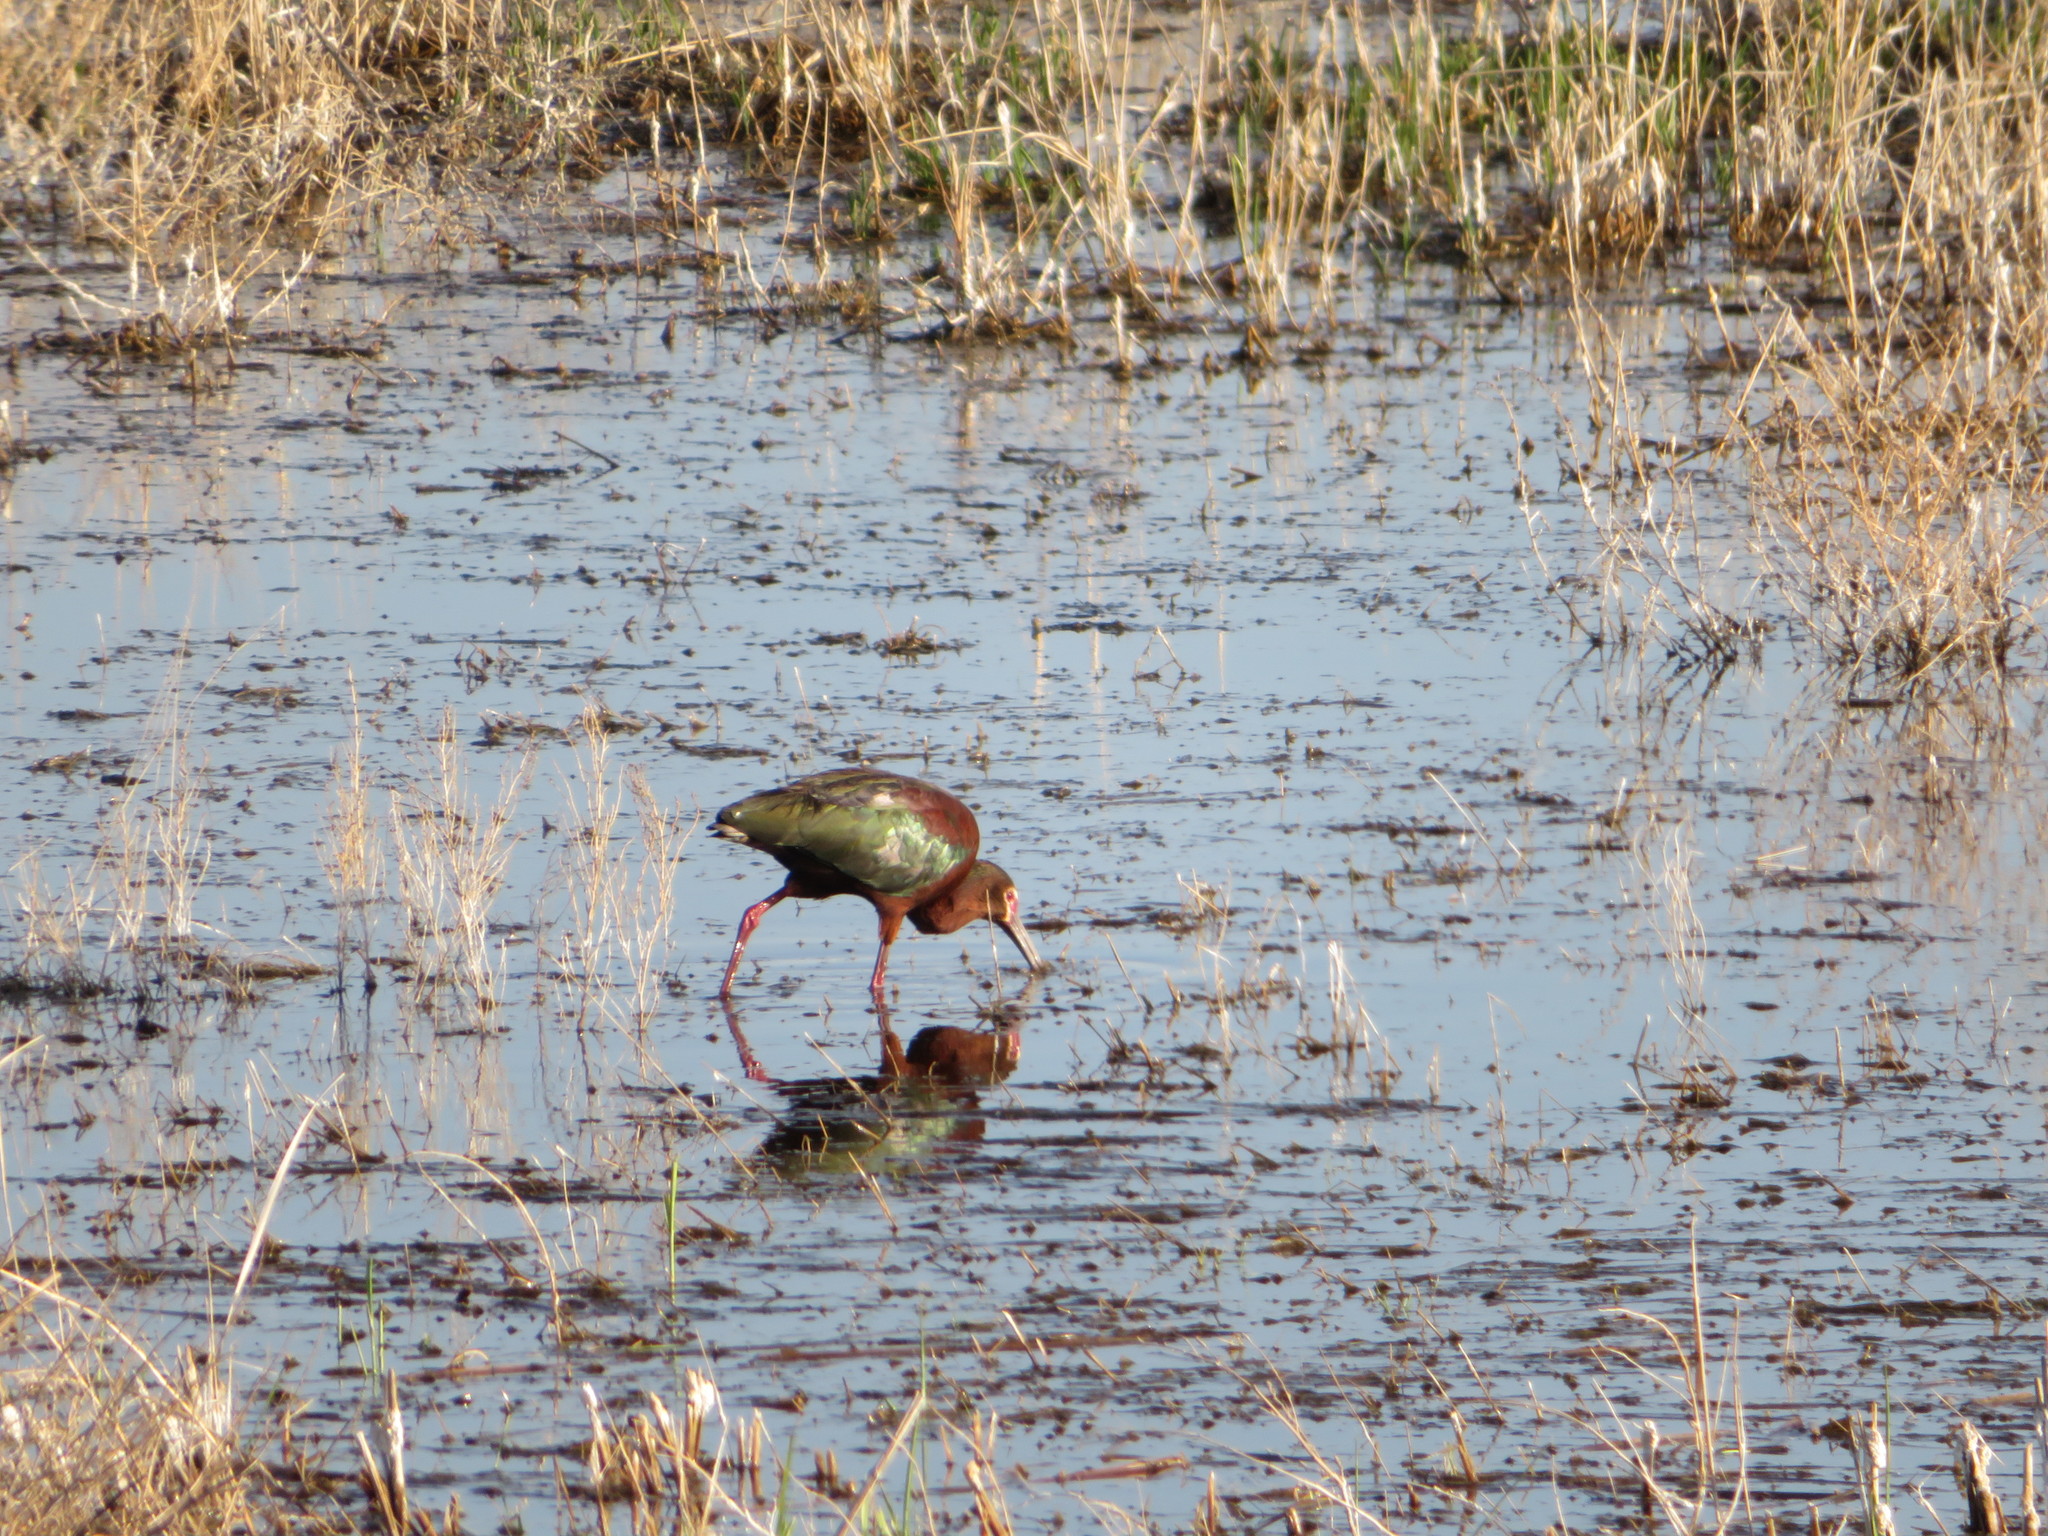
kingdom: Animalia
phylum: Chordata
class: Aves
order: Pelecaniformes
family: Threskiornithidae
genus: Plegadis
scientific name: Plegadis chihi
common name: White-faced ibis
